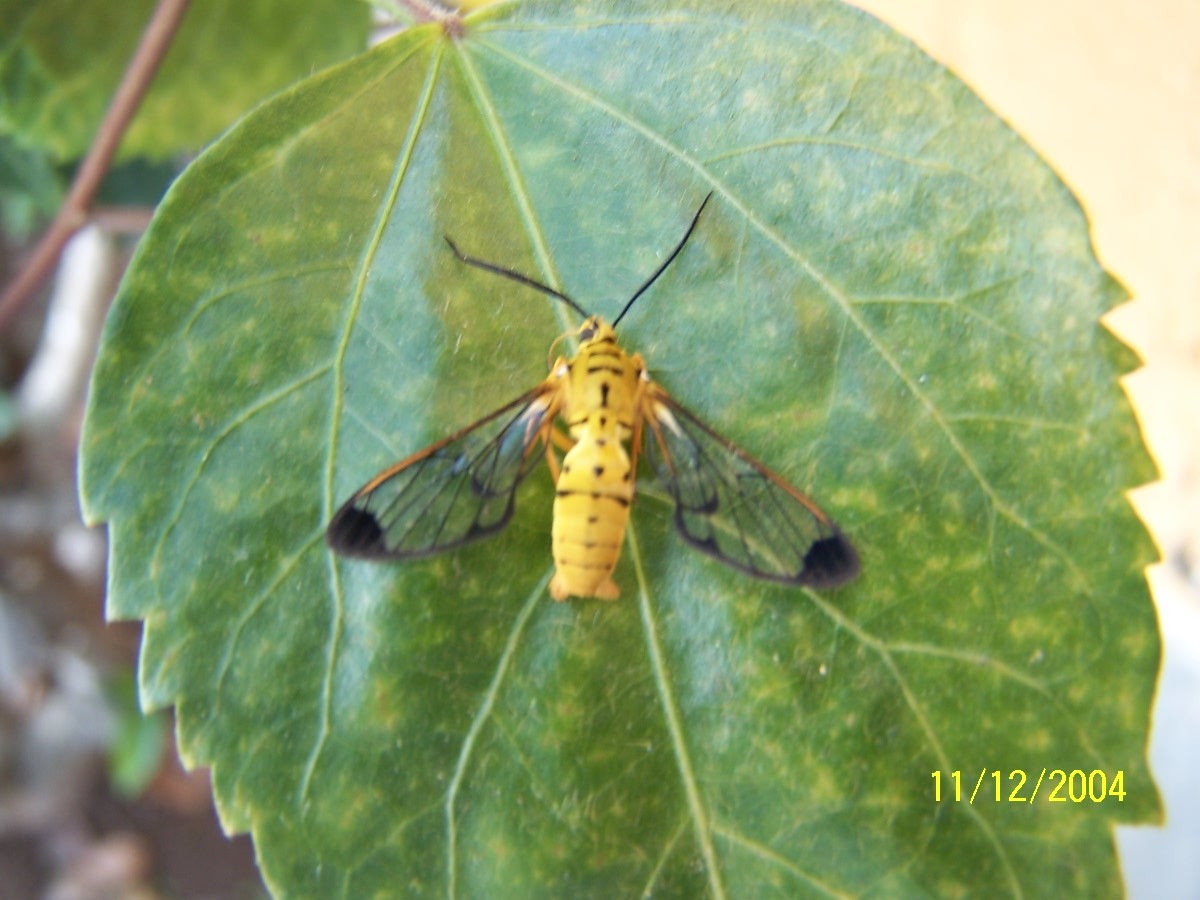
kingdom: Animalia
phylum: Arthropoda
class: Insecta
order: Lepidoptera
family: Erebidae
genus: Isanthrene
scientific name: Isanthrene felderi
